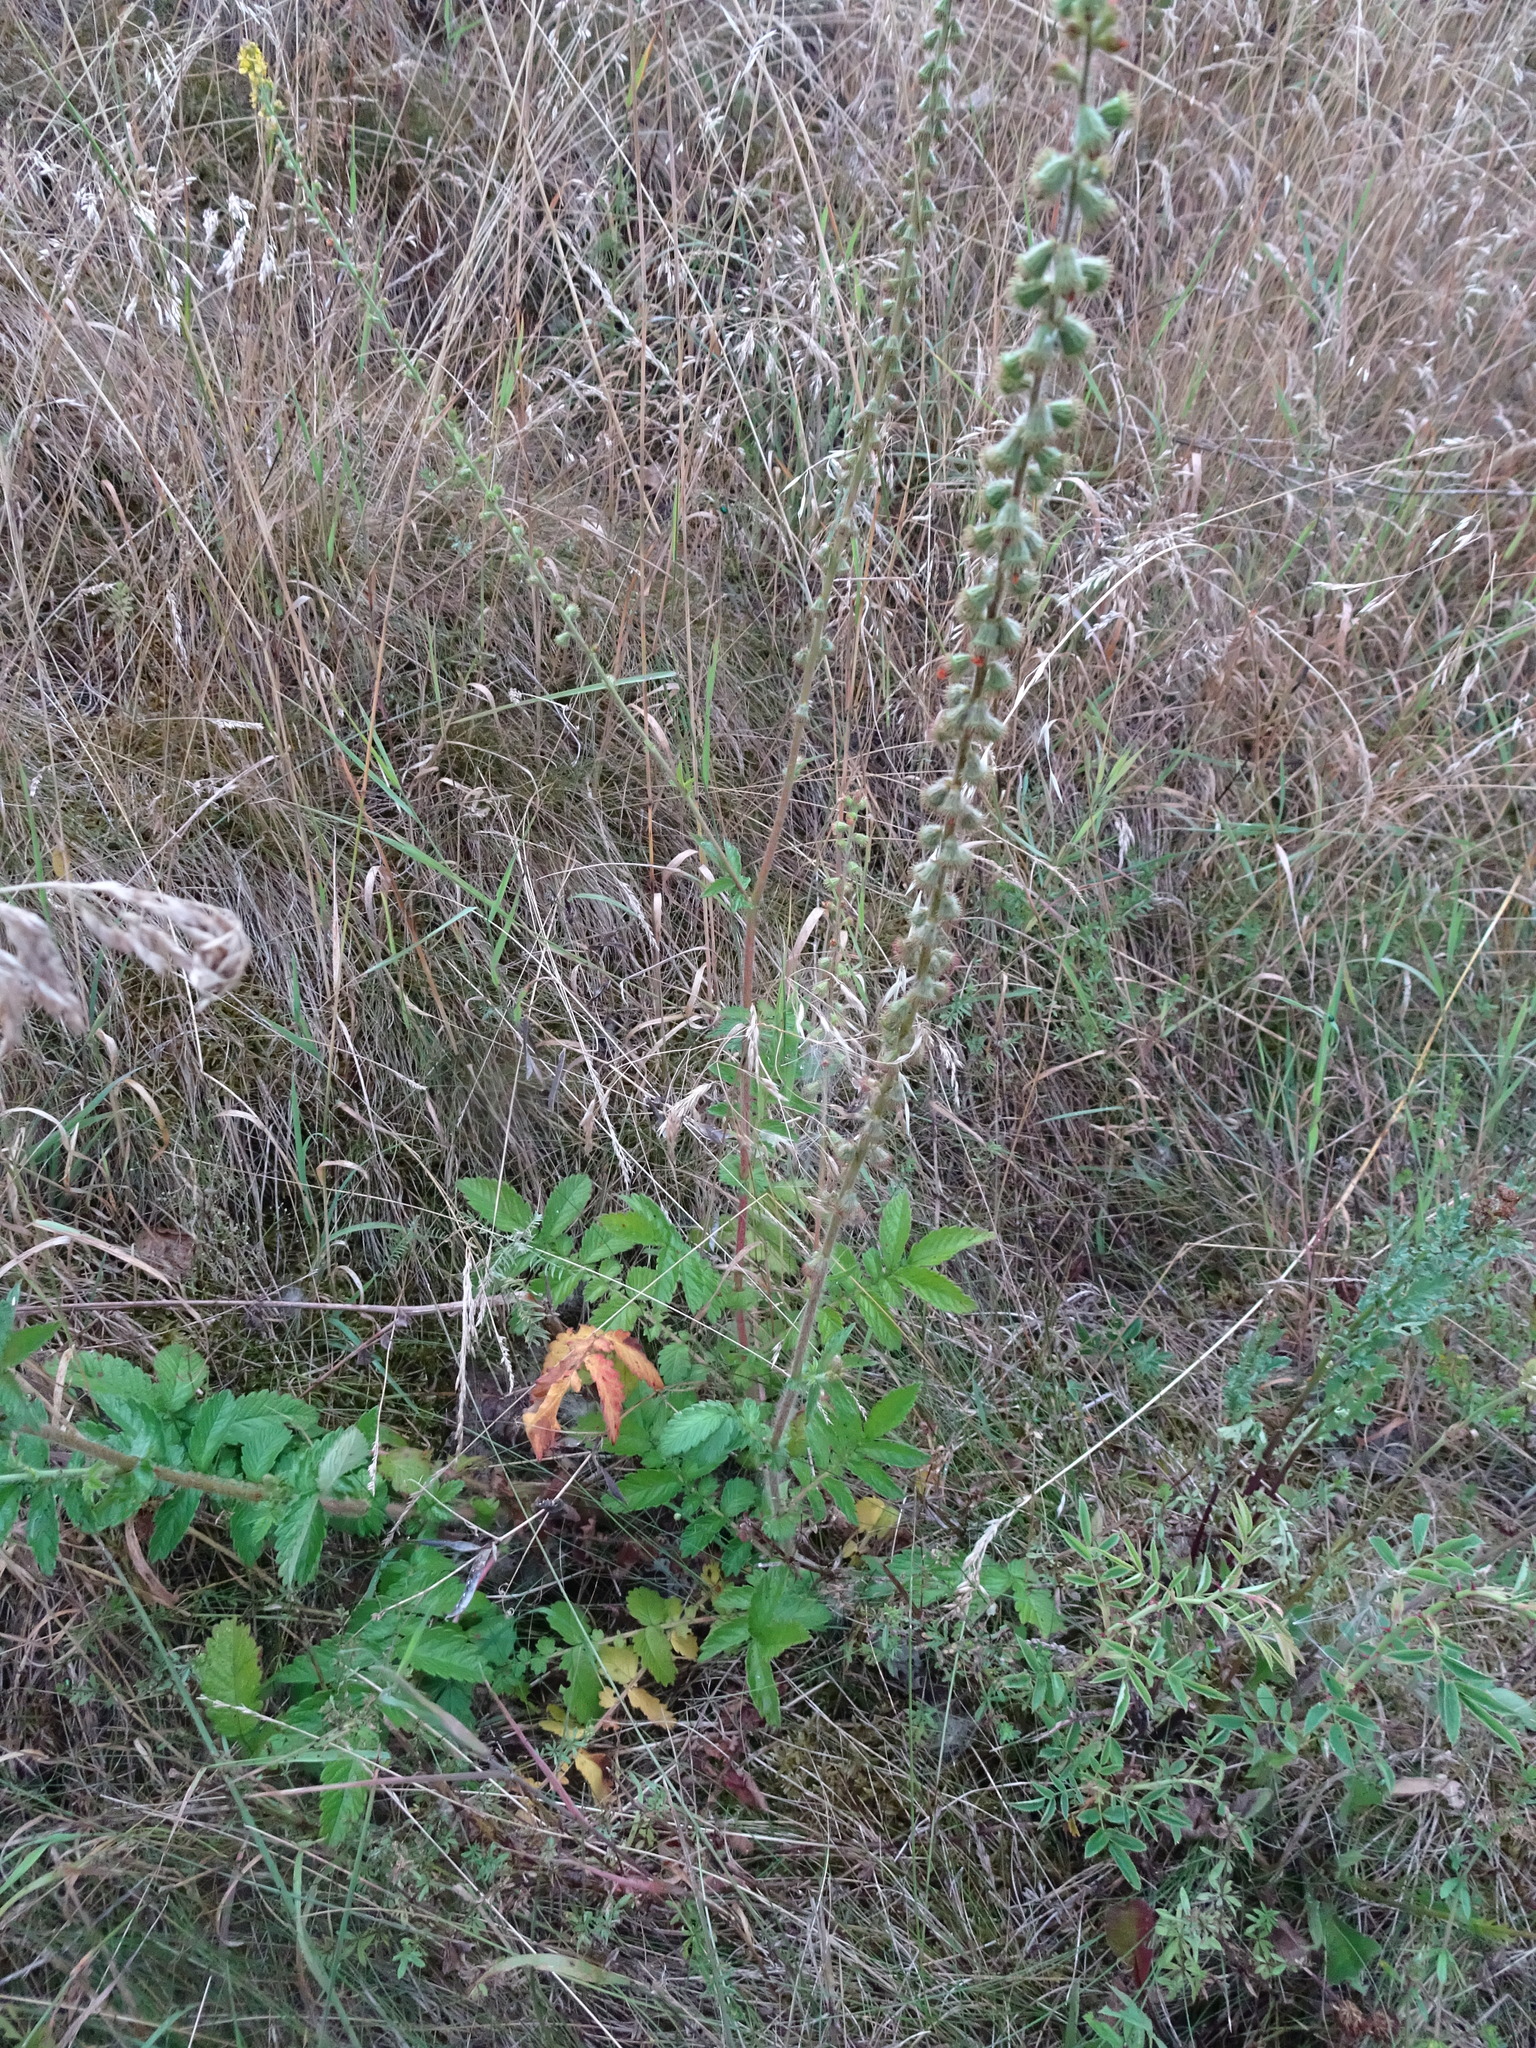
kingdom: Plantae
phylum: Tracheophyta
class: Magnoliopsida
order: Rosales
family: Rosaceae
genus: Agrimonia
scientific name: Agrimonia eupatoria
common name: Agrimony
